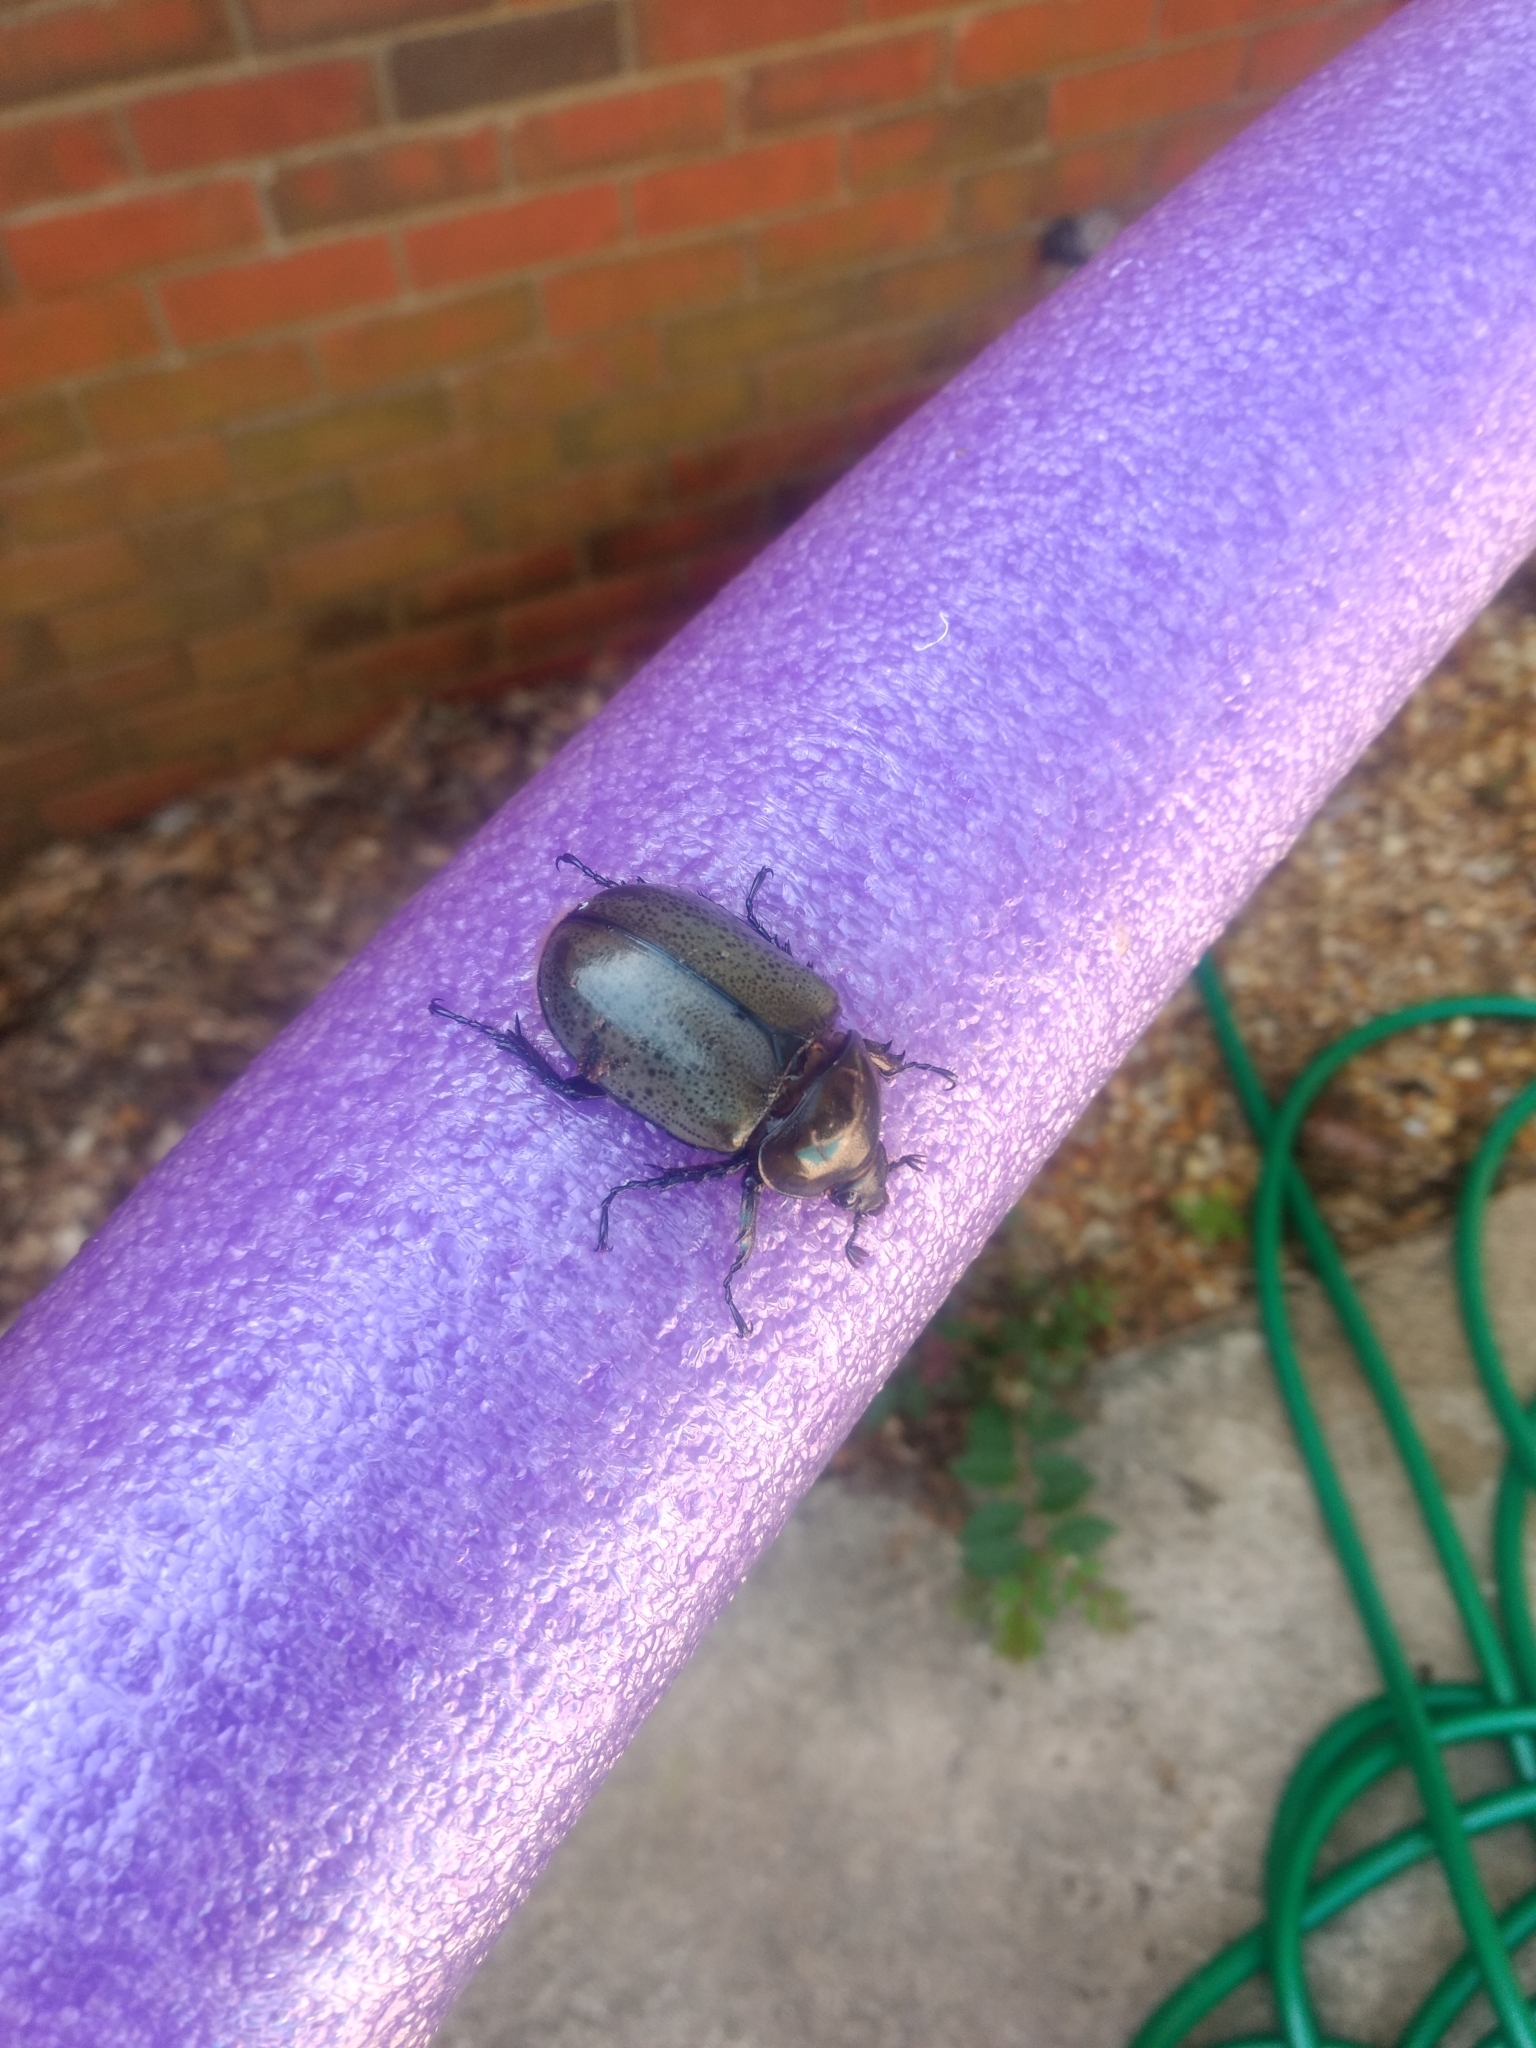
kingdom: Animalia
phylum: Arthropoda
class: Insecta
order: Coleoptera
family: Scarabaeidae
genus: Dynastes
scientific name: Dynastes tityus
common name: Eastern hercules beetle
